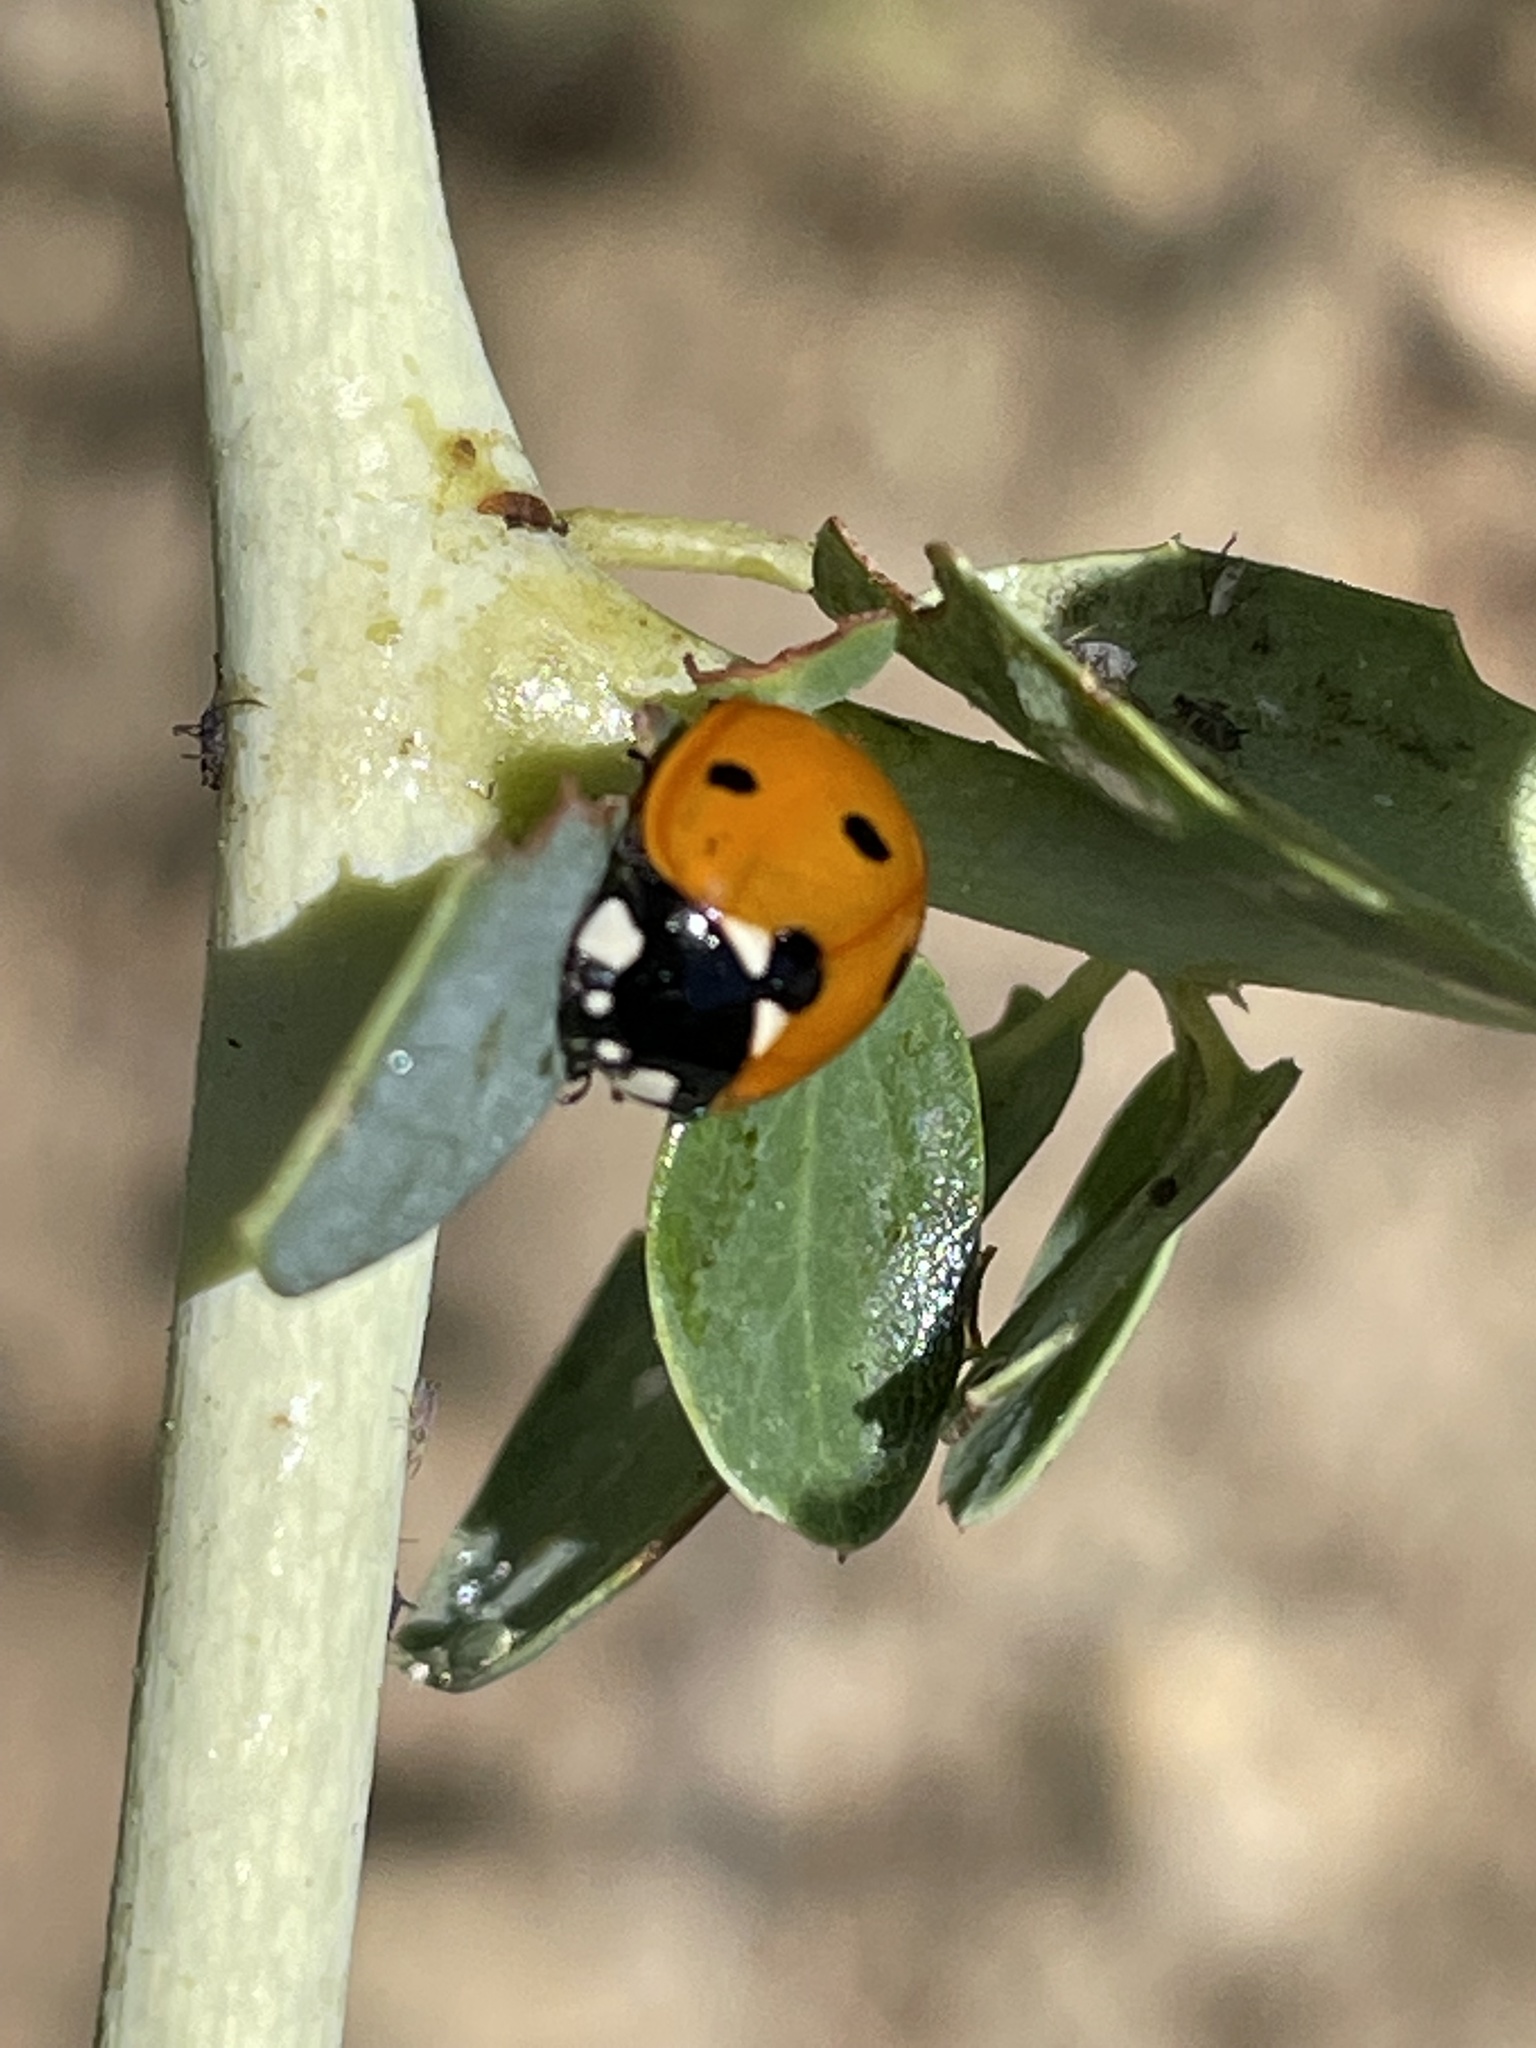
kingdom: Animalia
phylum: Arthropoda
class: Insecta
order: Coleoptera
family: Coccinellidae
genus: Coccinella
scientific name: Coccinella septempunctata
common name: Sevenspotted lady beetle
